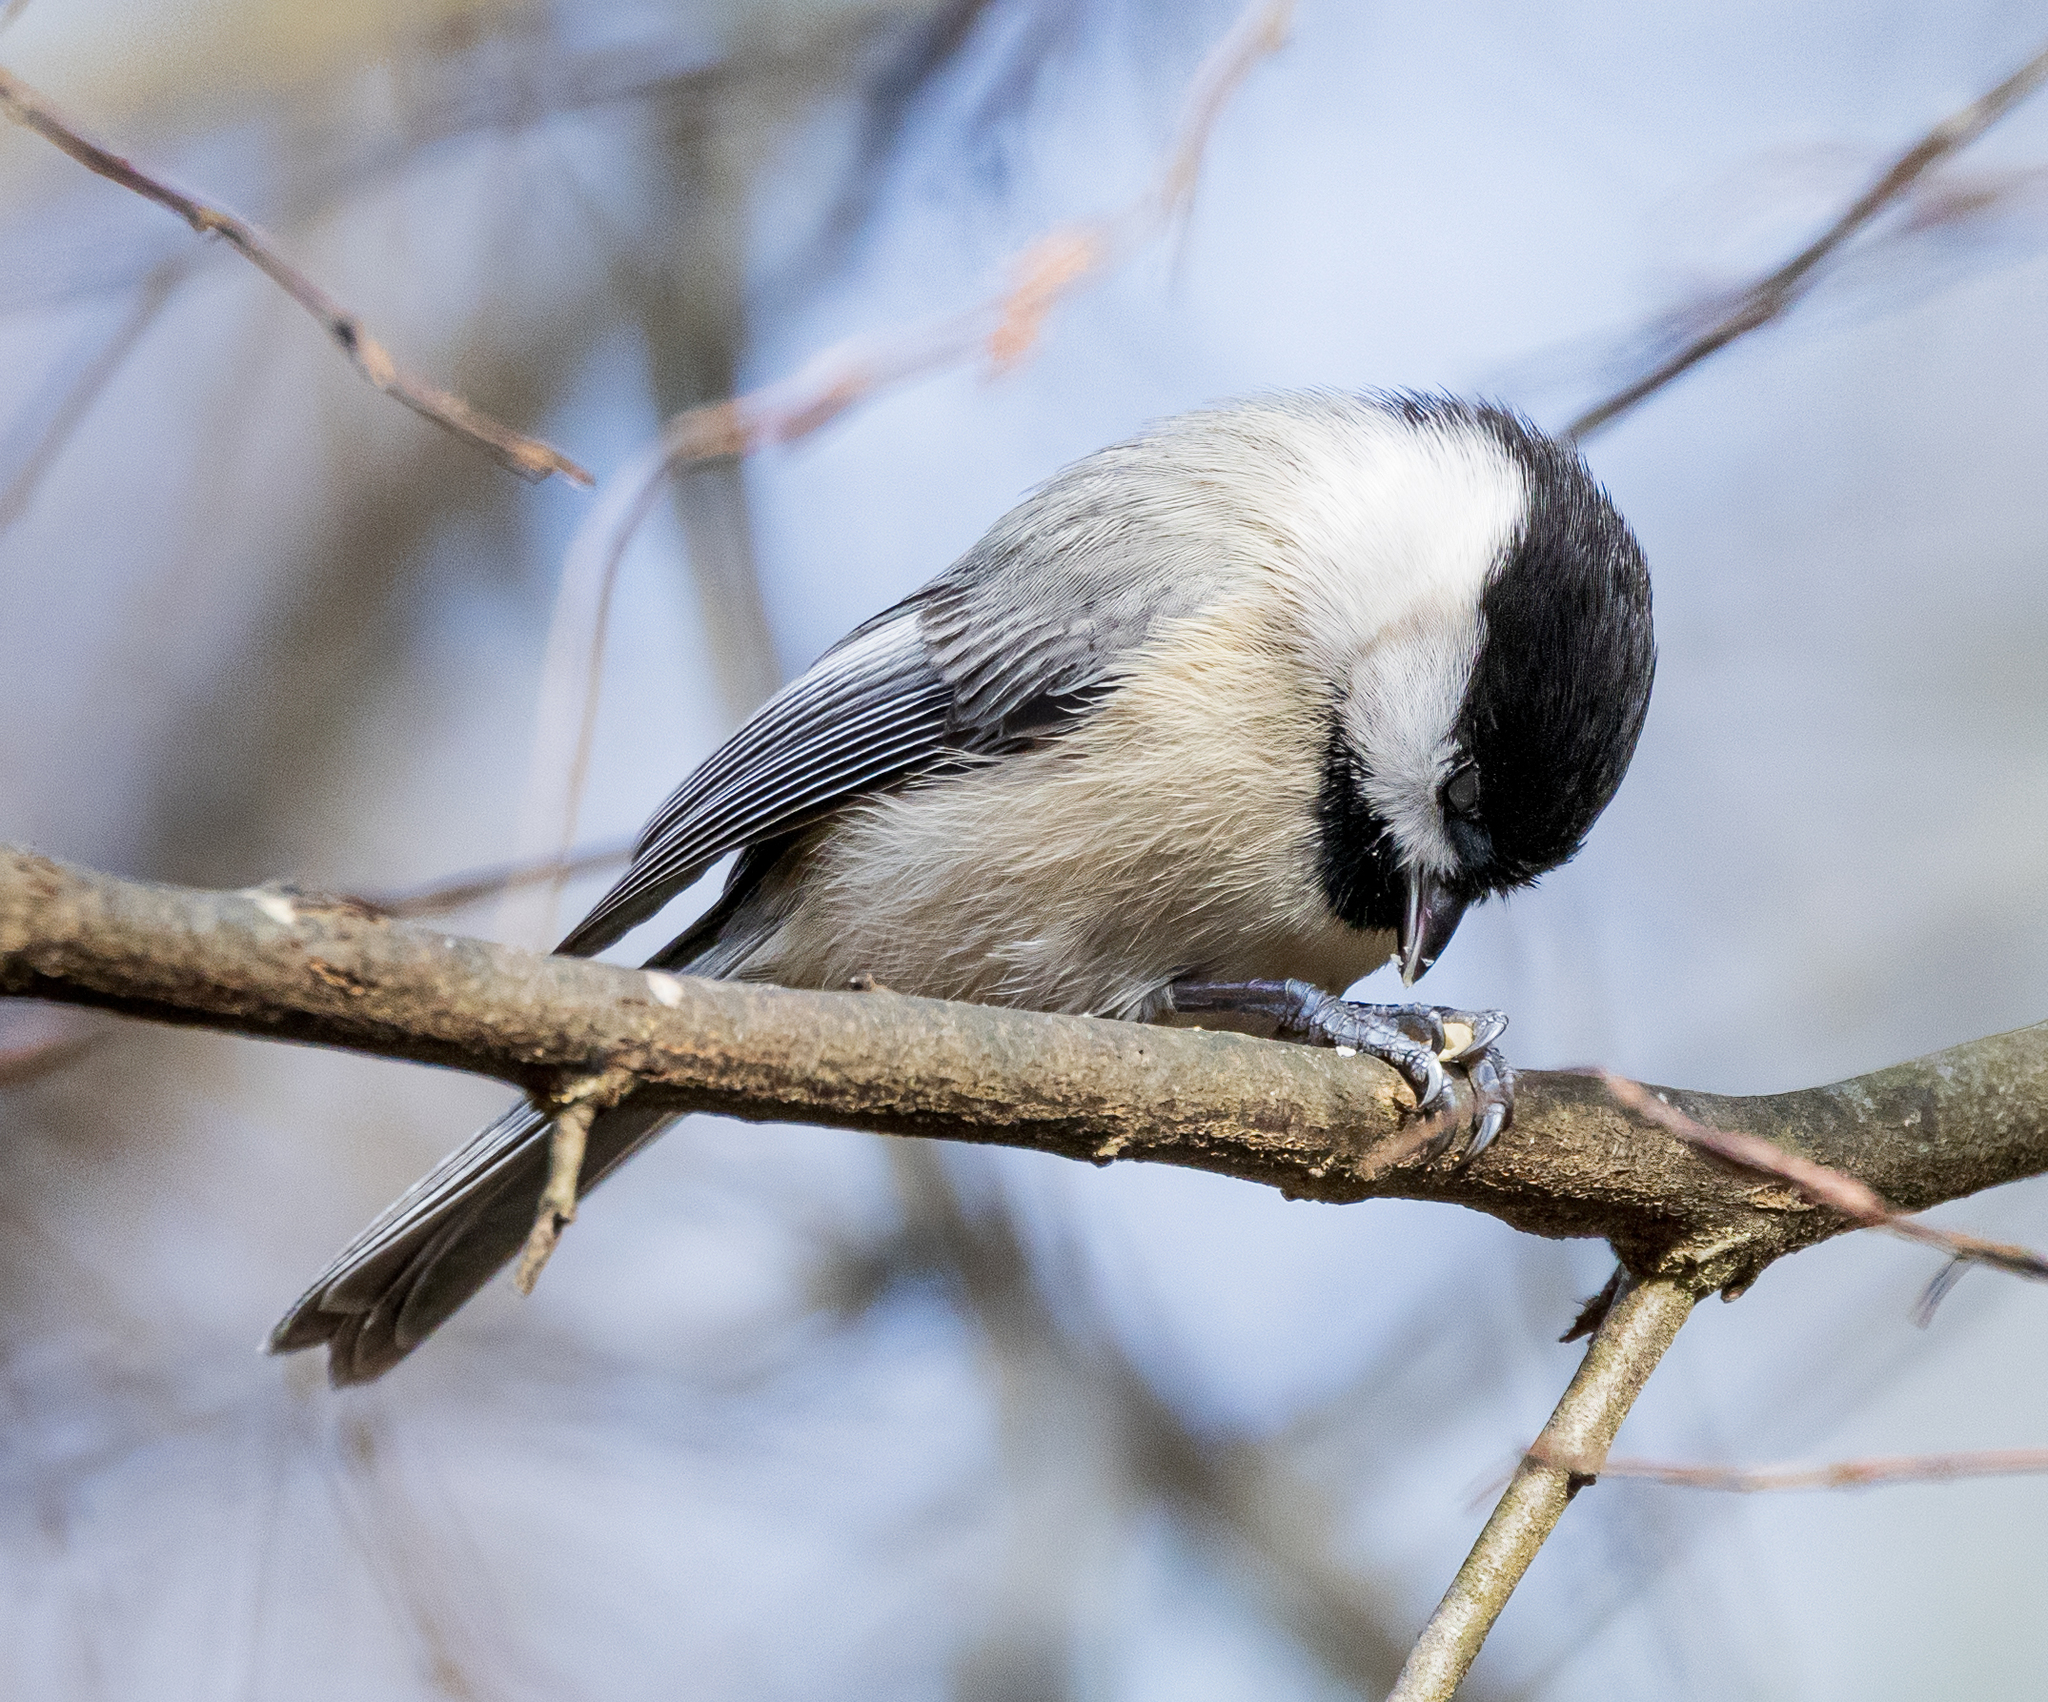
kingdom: Animalia
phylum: Chordata
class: Aves
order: Passeriformes
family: Paridae
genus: Poecile
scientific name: Poecile carolinensis
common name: Carolina chickadee
